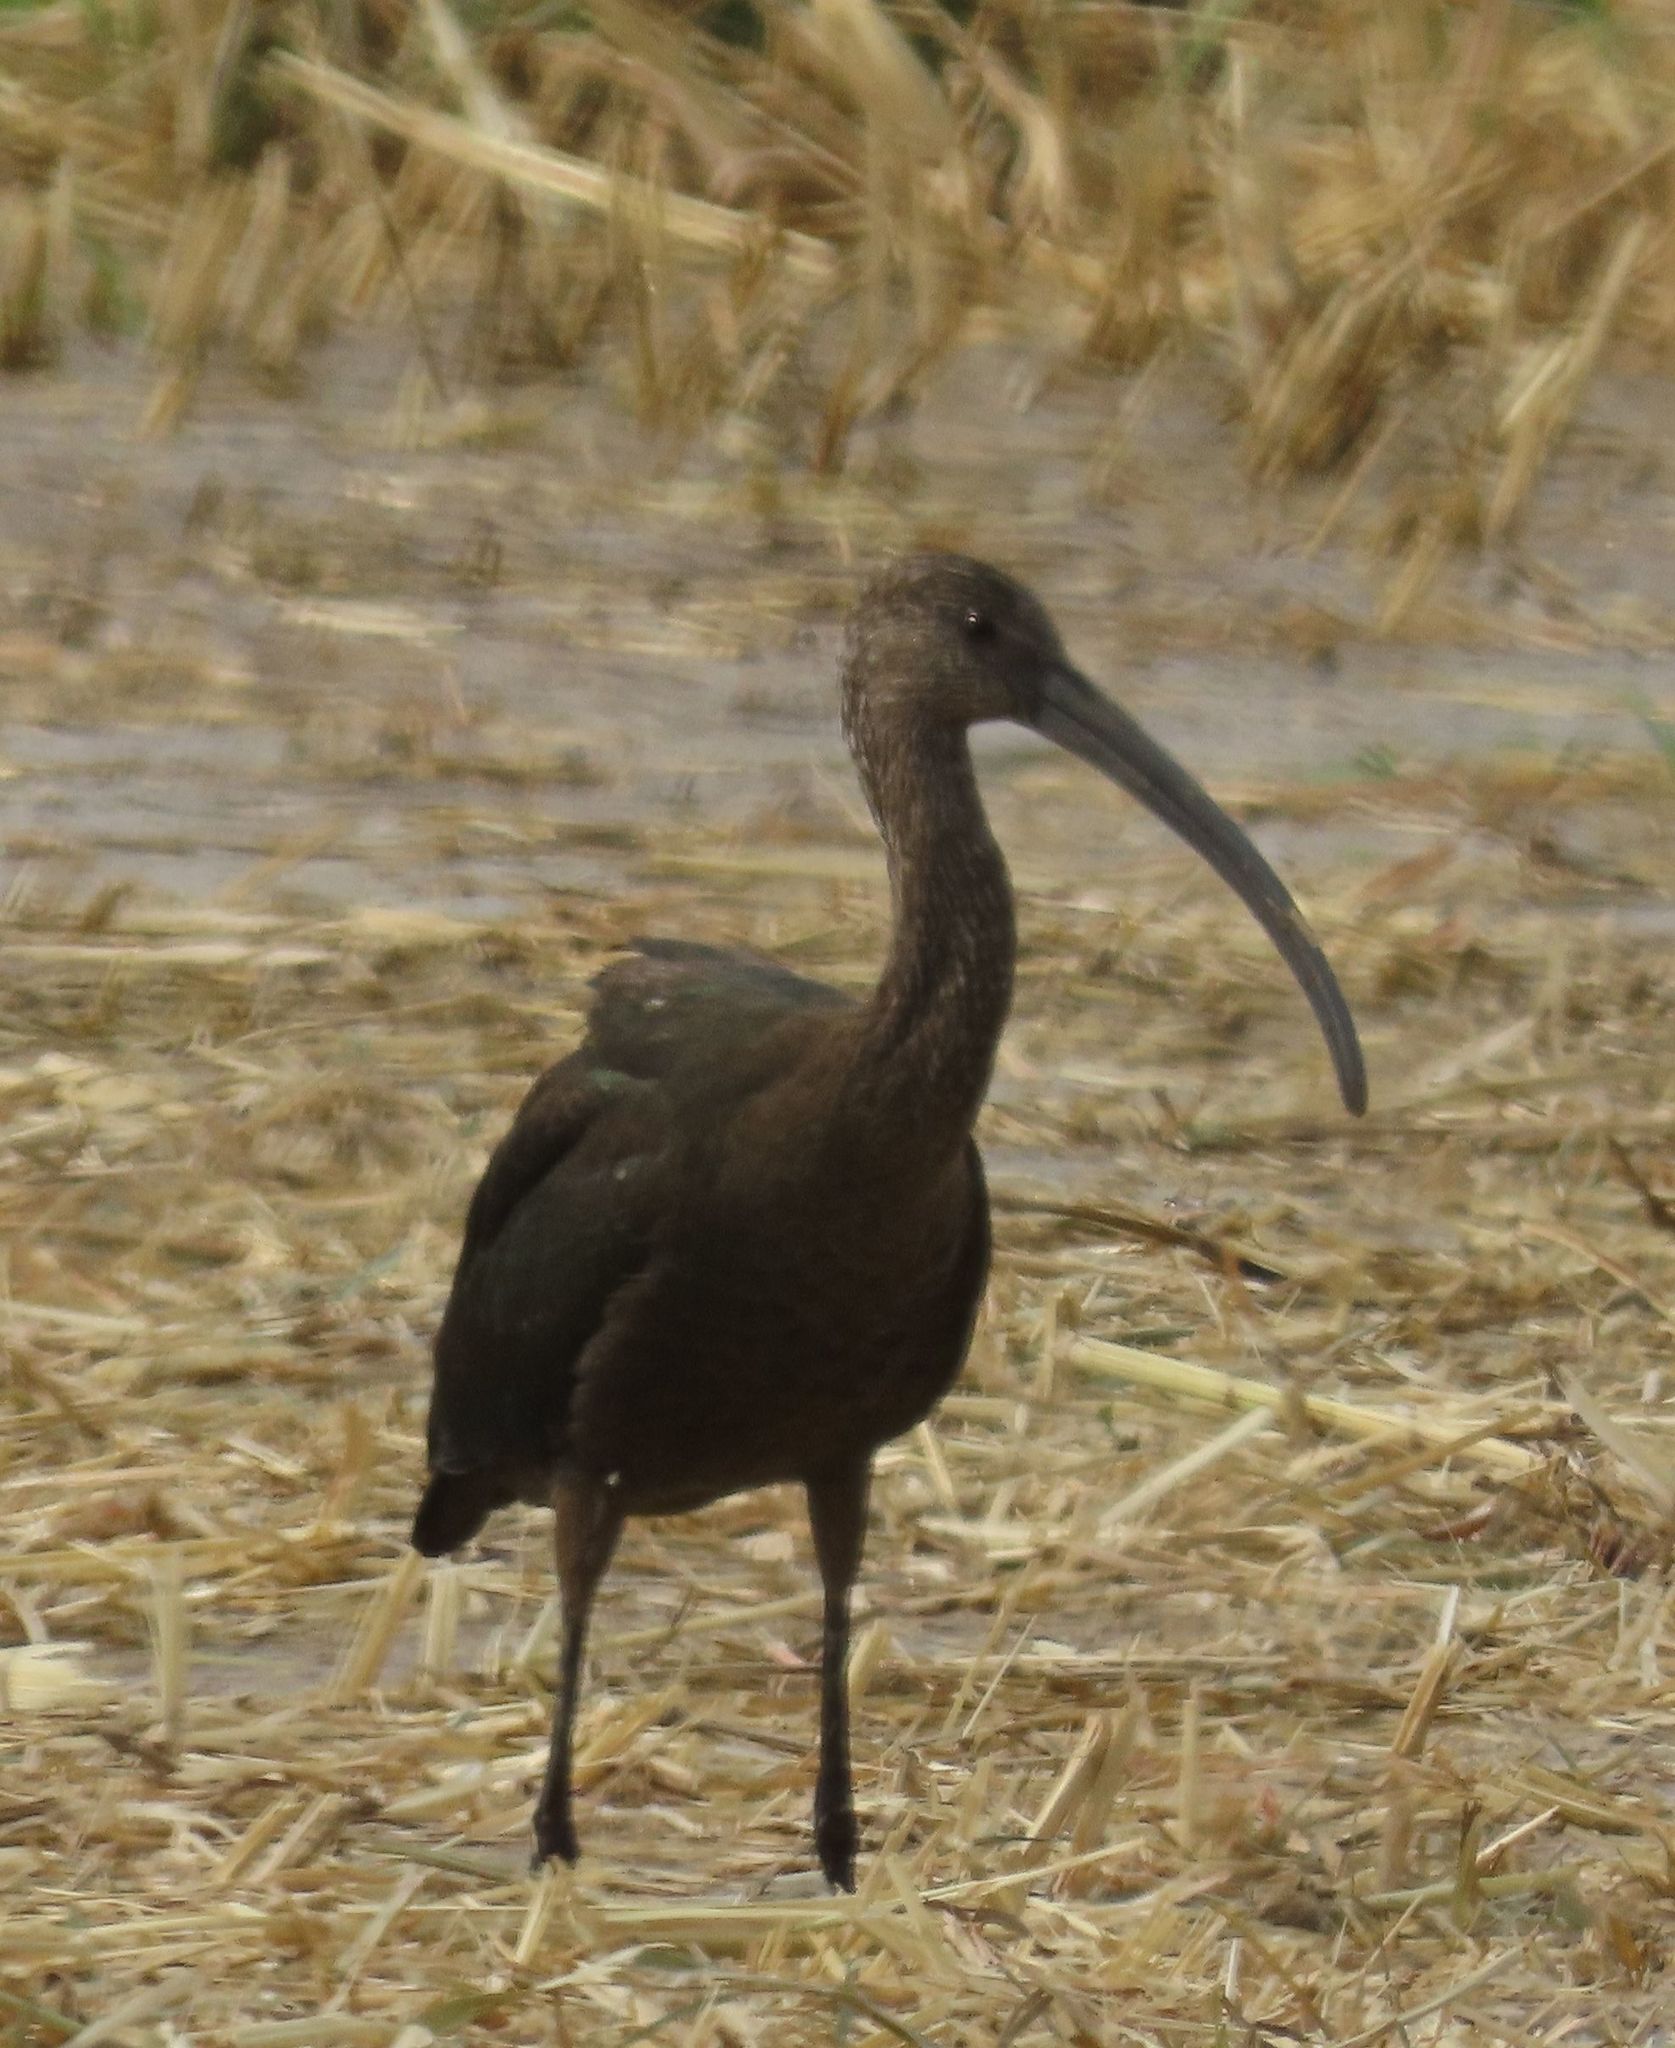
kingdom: Animalia
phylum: Chordata
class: Aves
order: Pelecaniformes
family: Threskiornithidae
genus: Plegadis
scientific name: Plegadis chihi
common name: White-faced ibis
